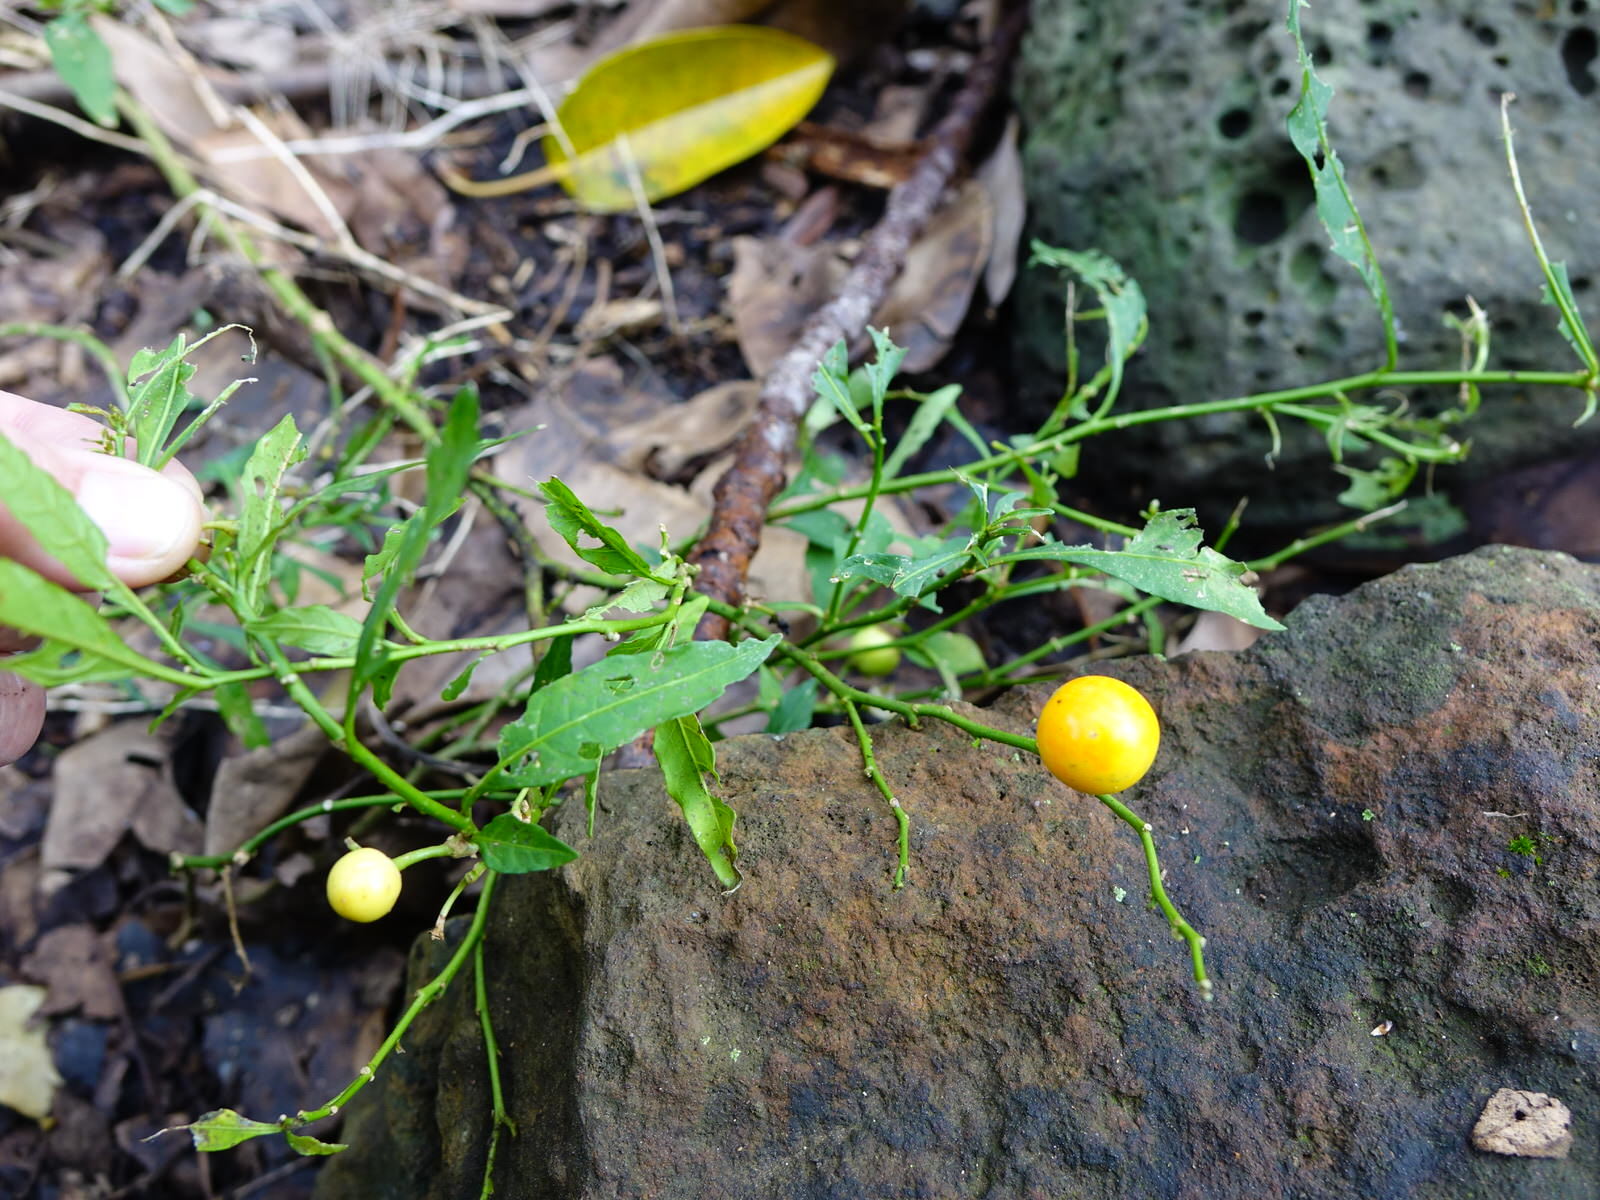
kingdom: Plantae
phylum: Tracheophyta
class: Magnoliopsida
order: Solanales
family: Solanaceae
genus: Solanum
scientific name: Solanum pseudocapsicum
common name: Jerusalem cherry
